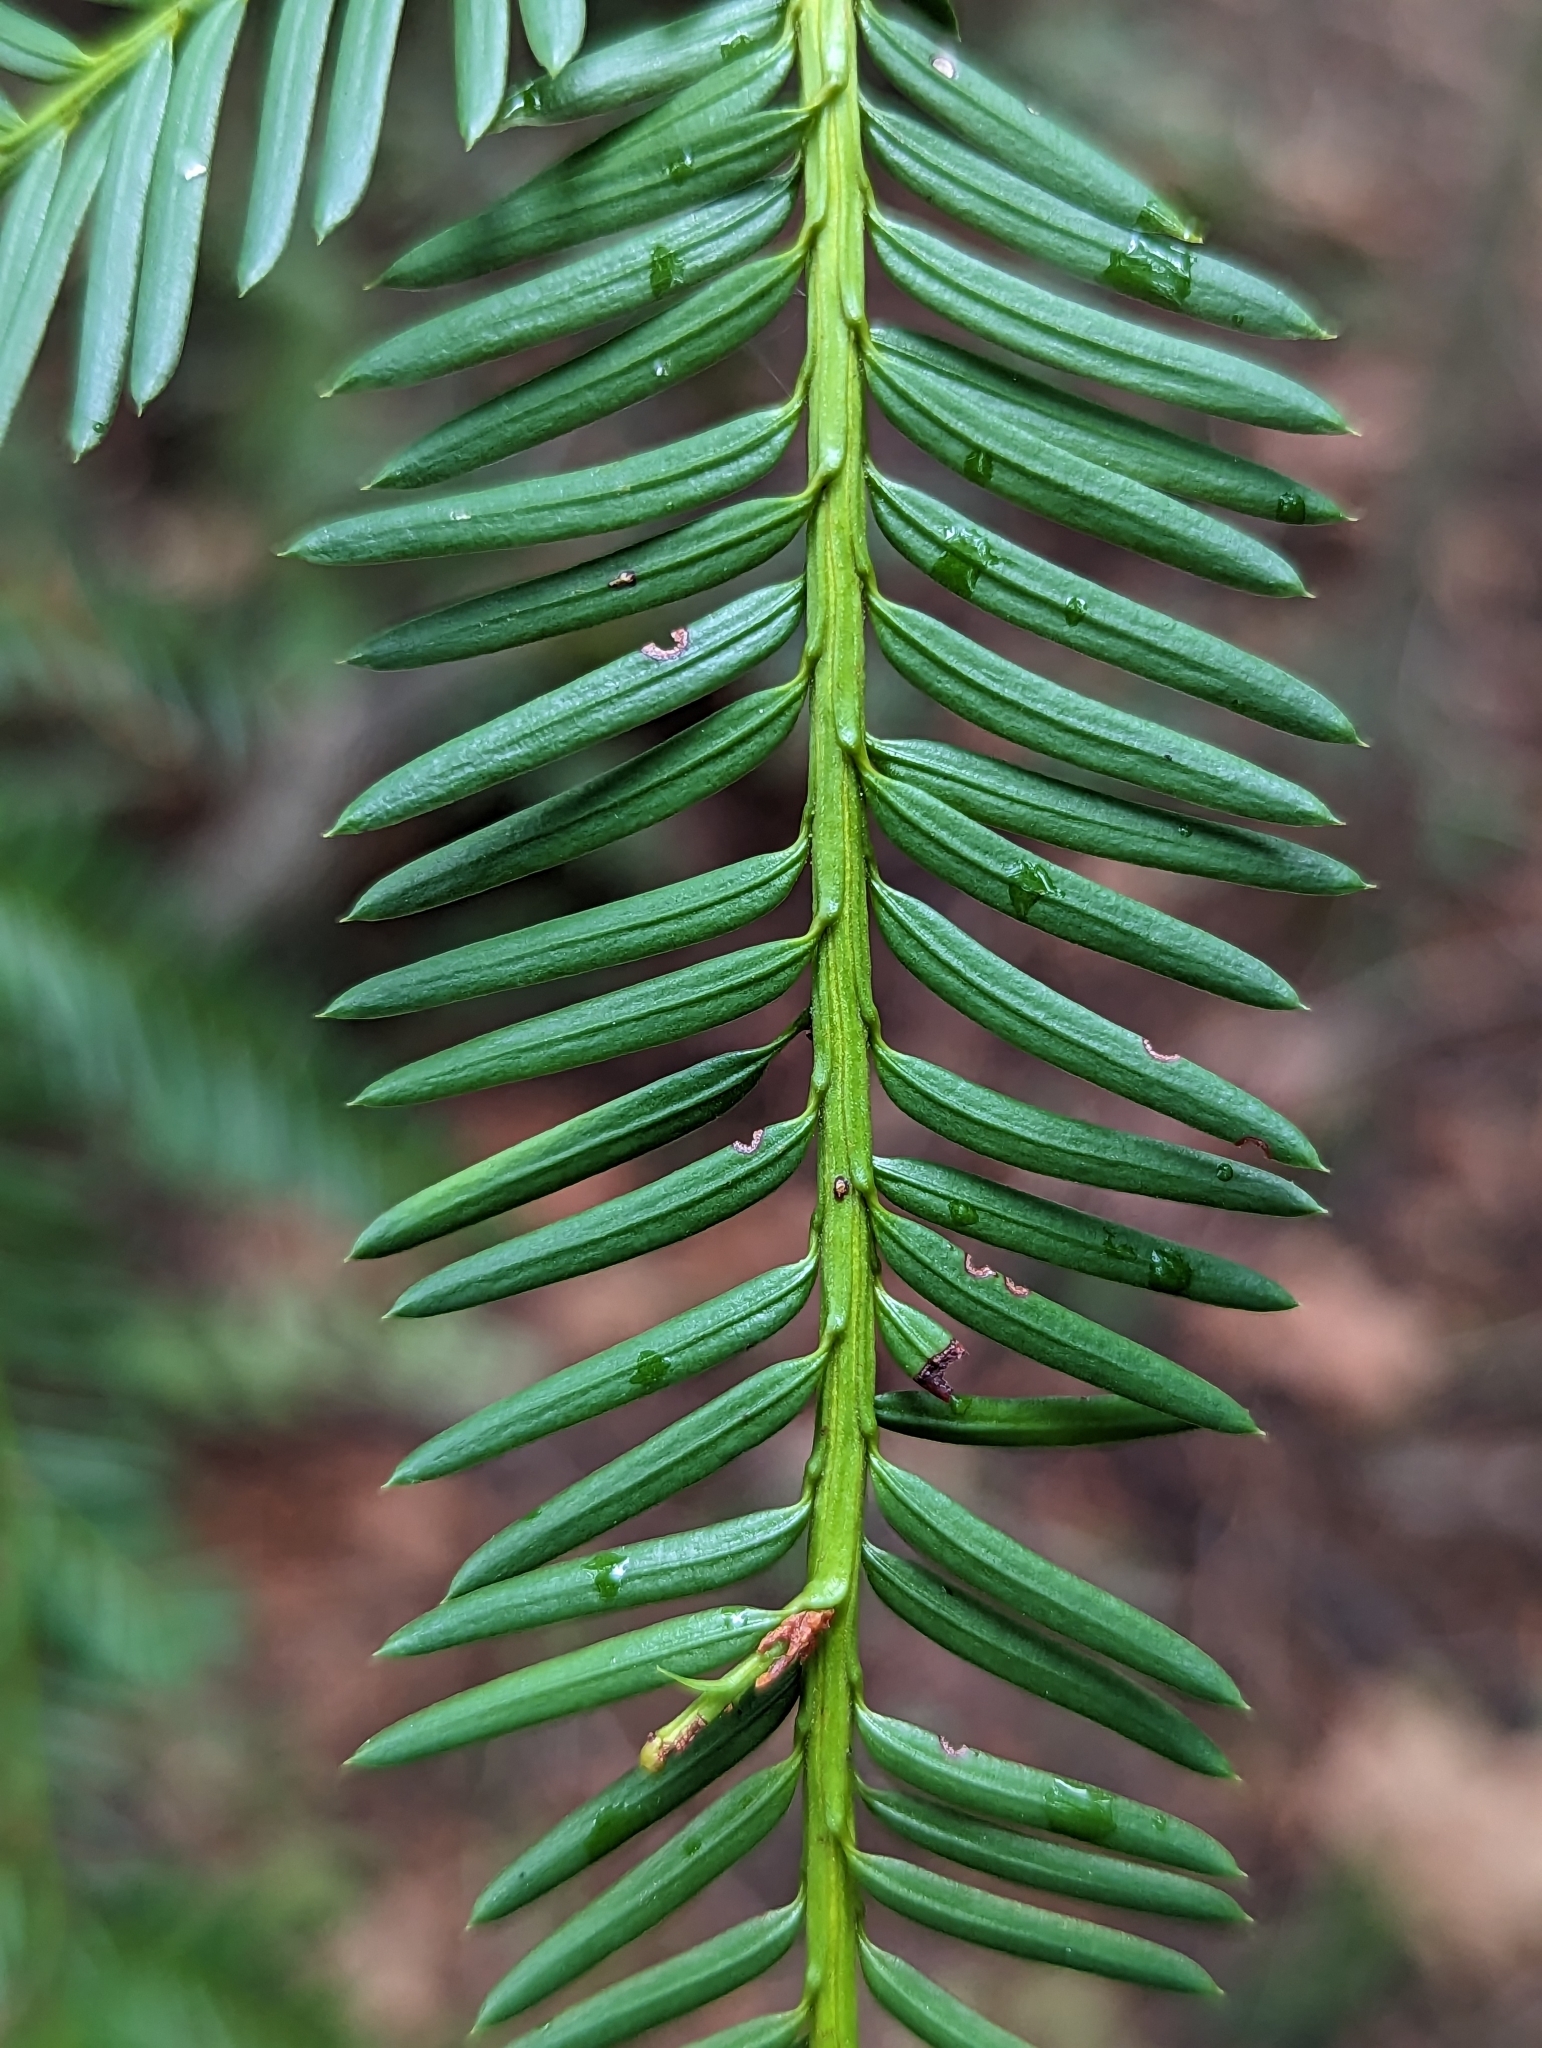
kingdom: Plantae
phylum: Tracheophyta
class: Pinopsida
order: Pinales
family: Taxaceae
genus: Taxus
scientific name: Taxus brevifolia
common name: Pacific yew
